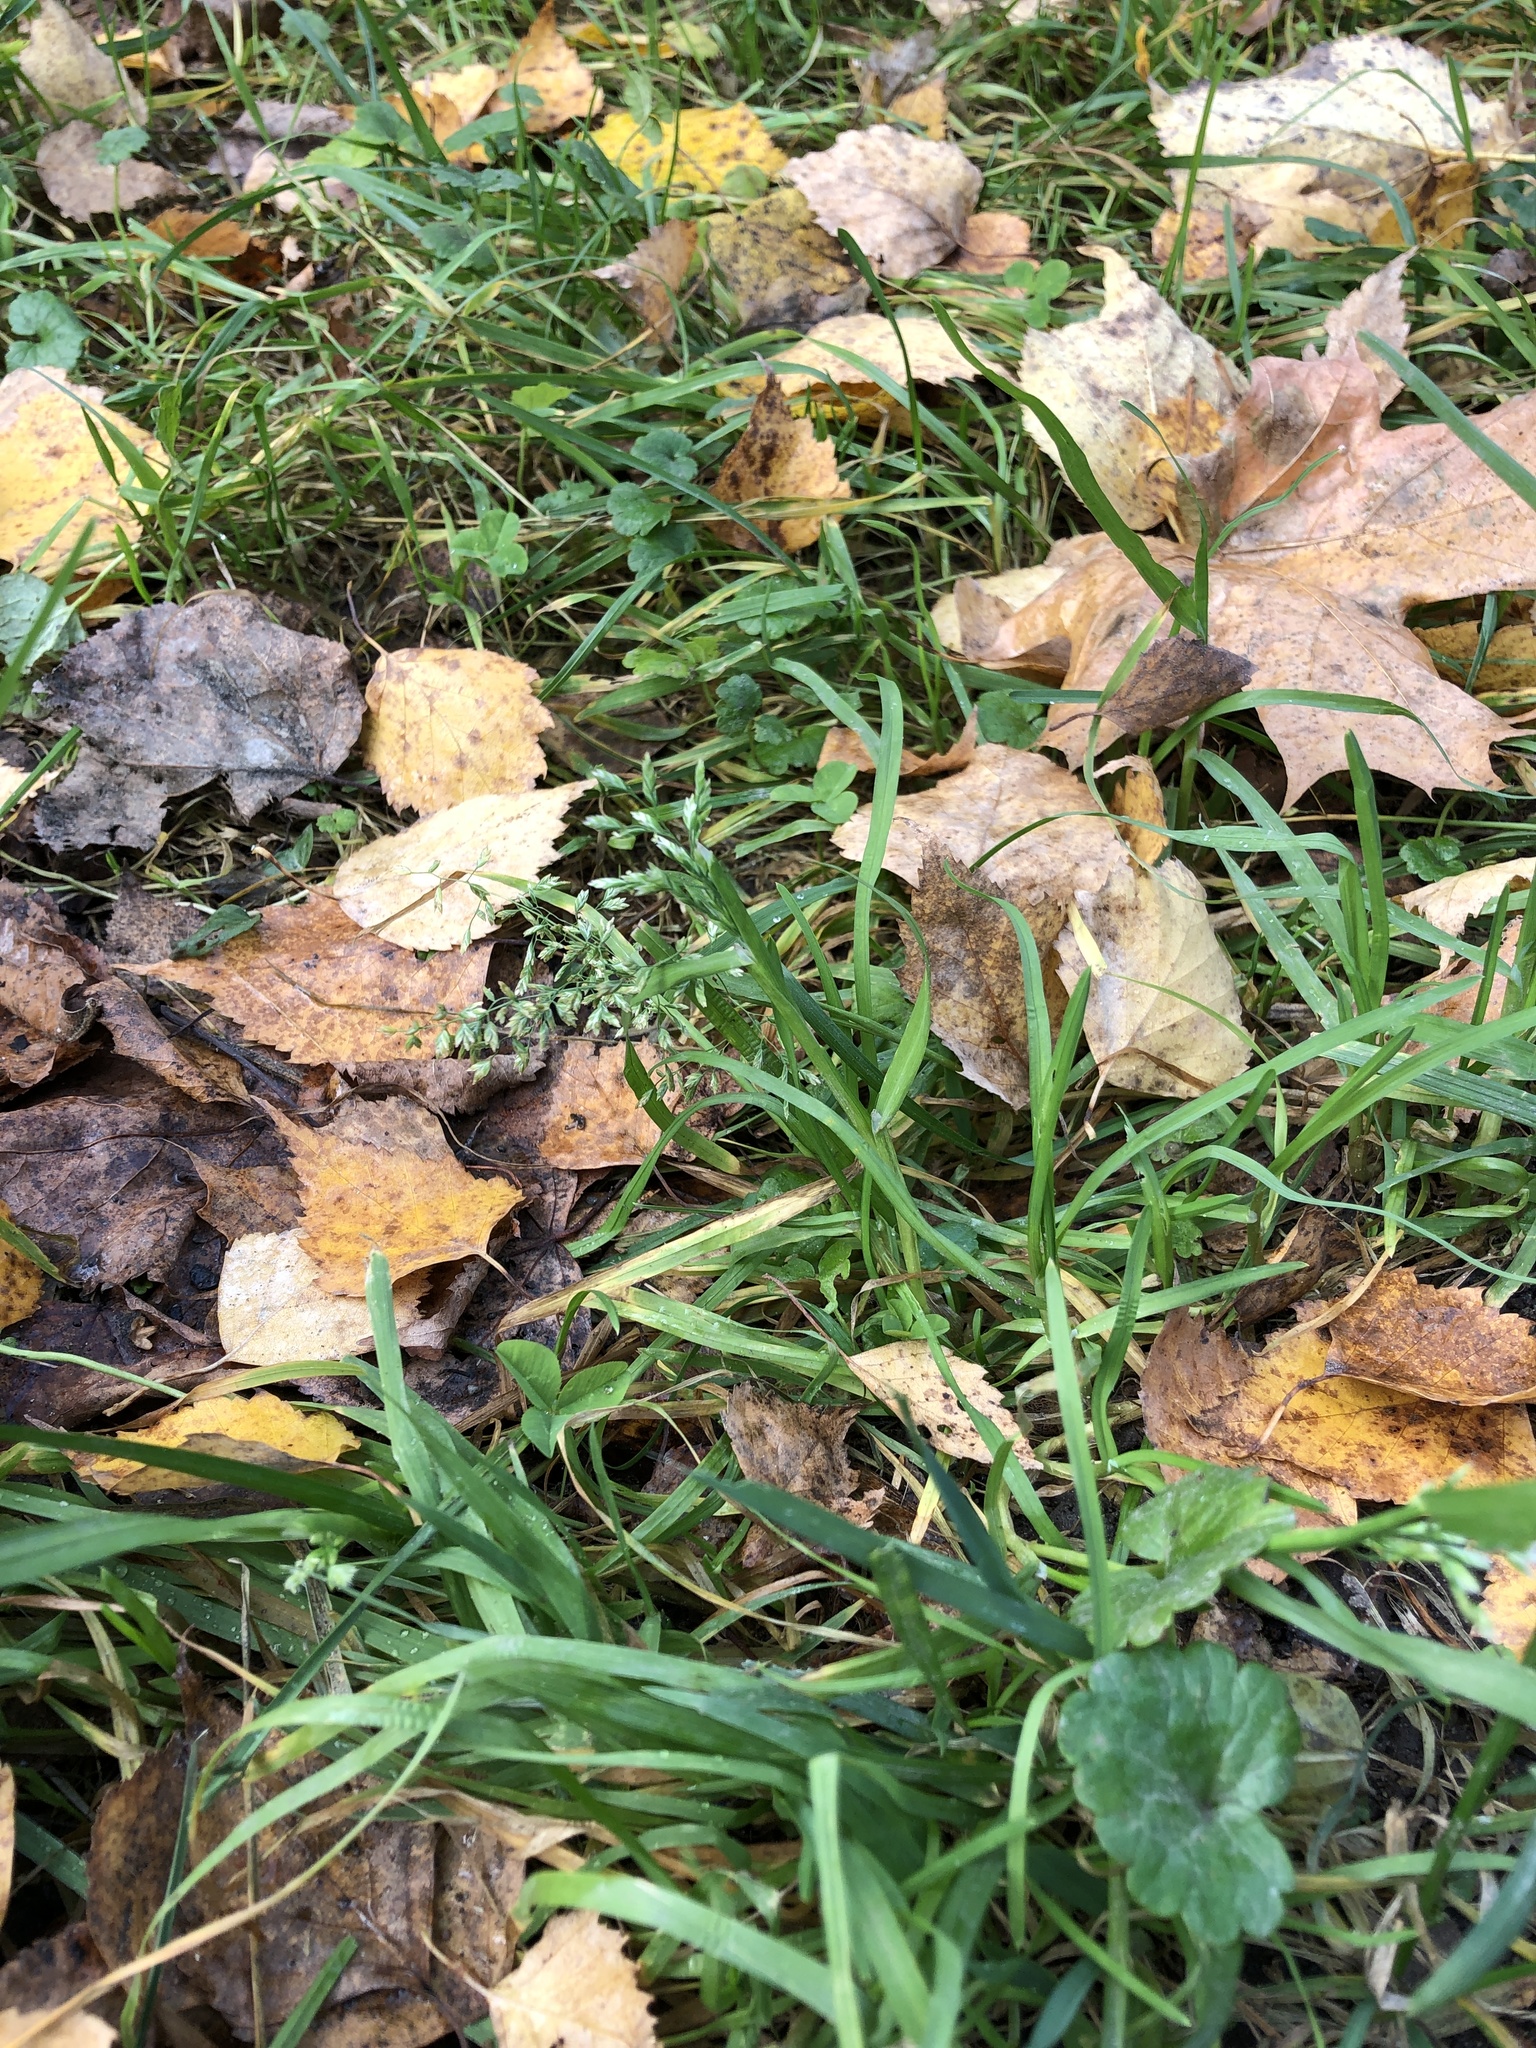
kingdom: Plantae
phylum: Tracheophyta
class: Liliopsida
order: Poales
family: Poaceae
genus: Poa
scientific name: Poa annua
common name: Annual bluegrass
